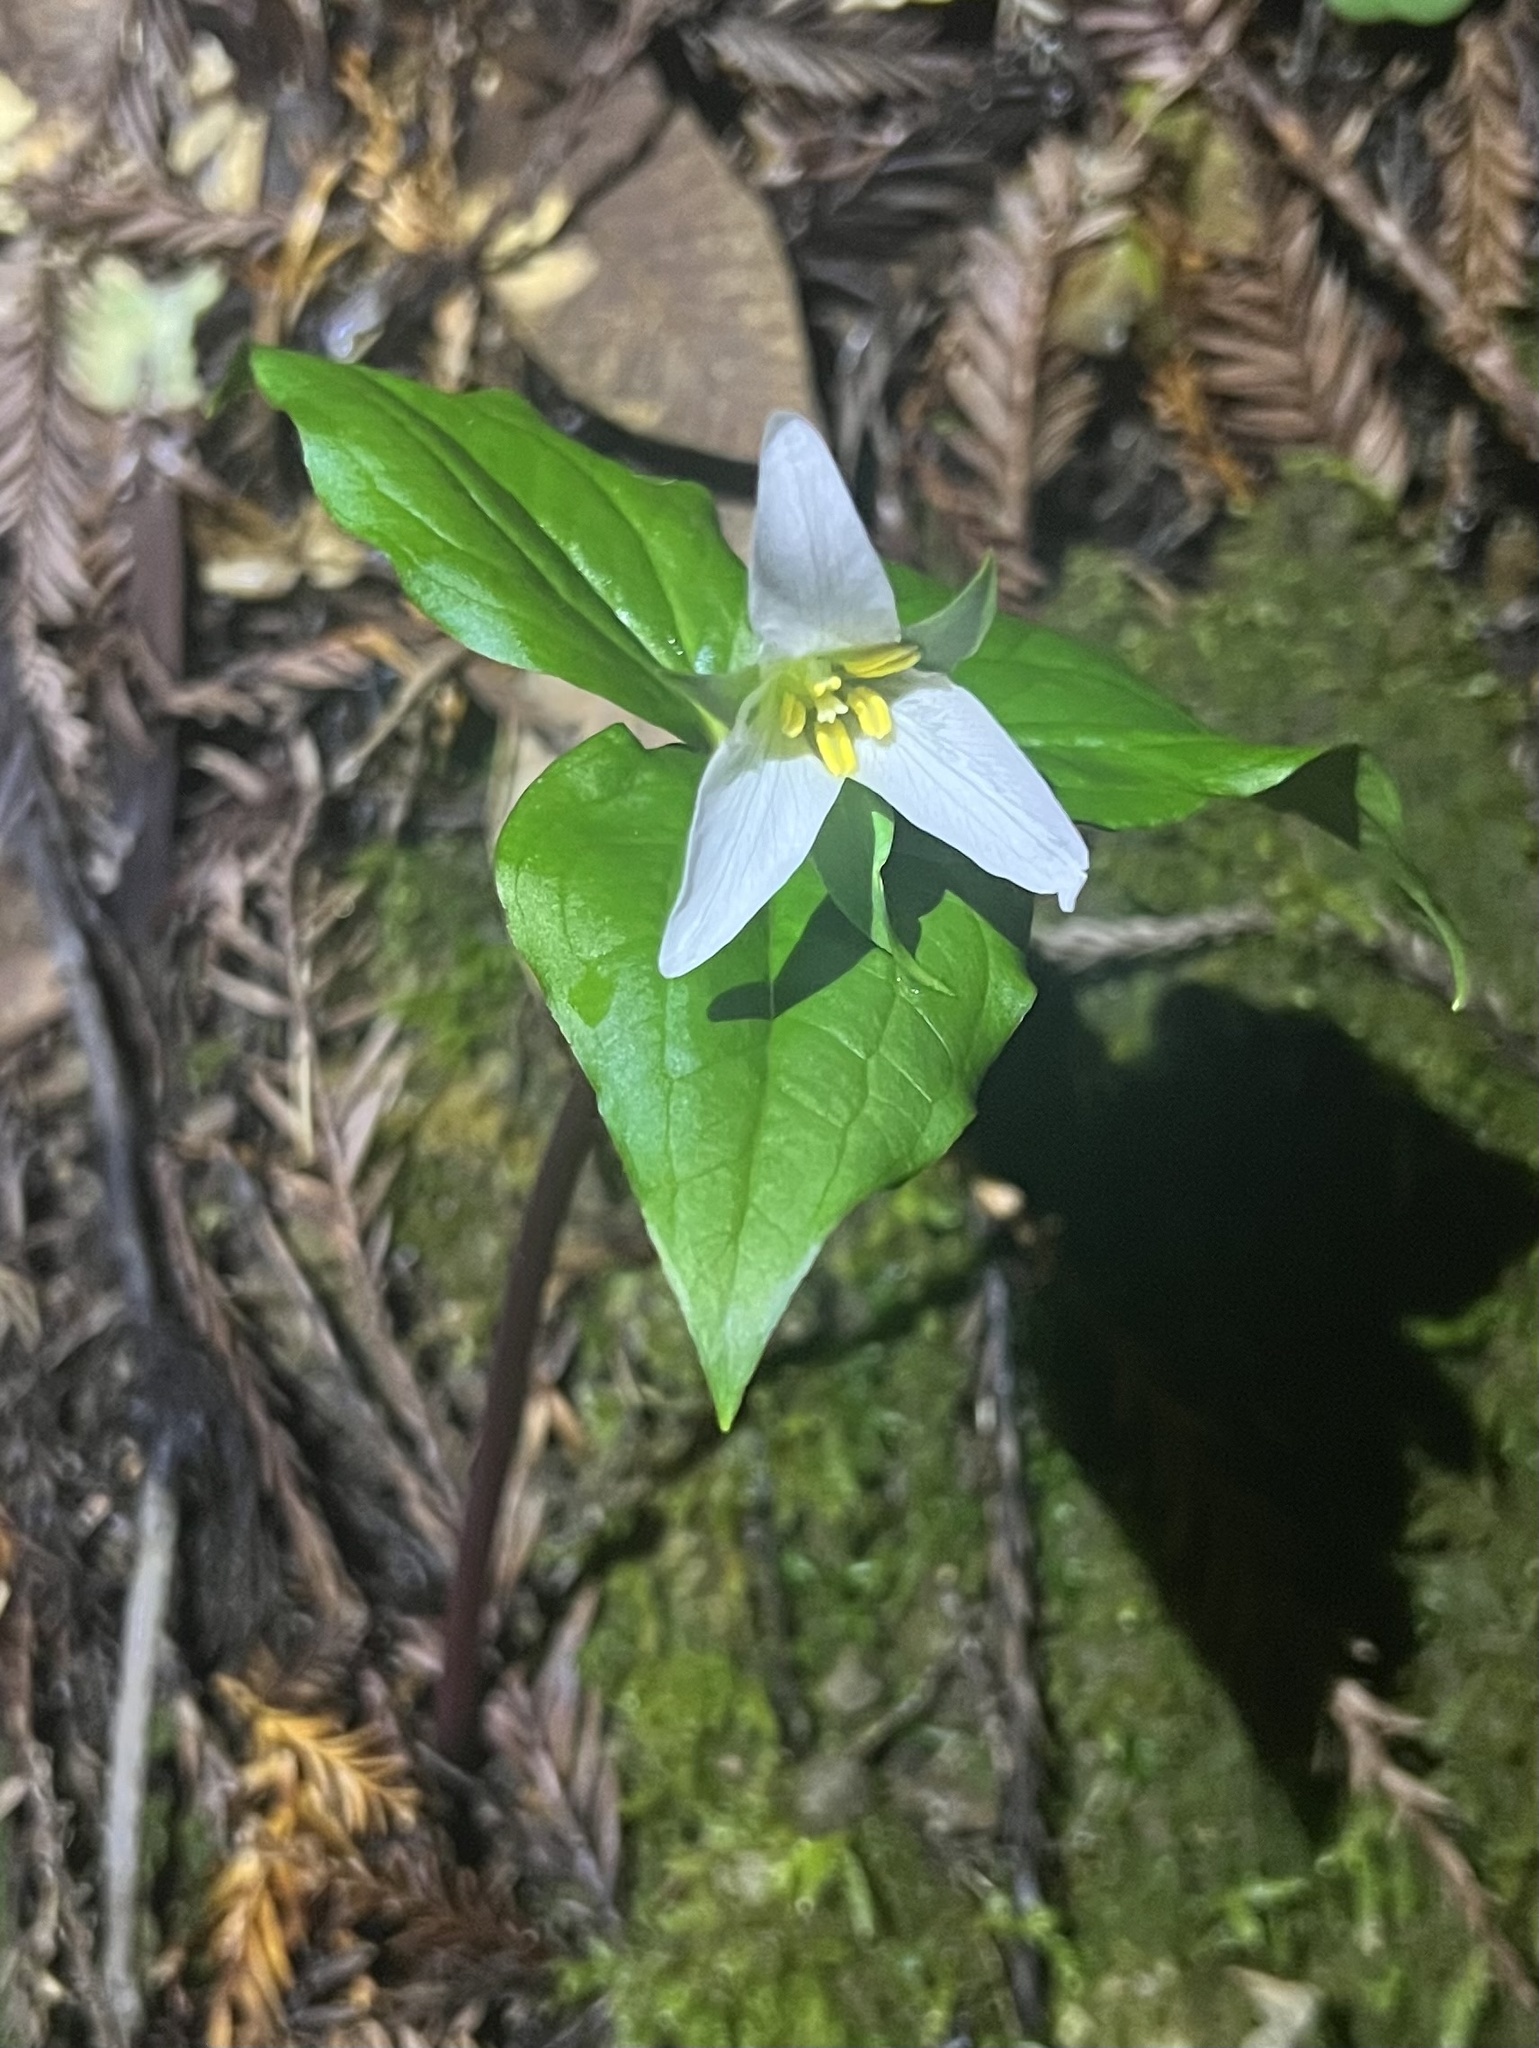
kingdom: Plantae
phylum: Tracheophyta
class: Liliopsida
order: Liliales
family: Melanthiaceae
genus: Trillium
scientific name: Trillium ovatum
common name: Pacific trillium
